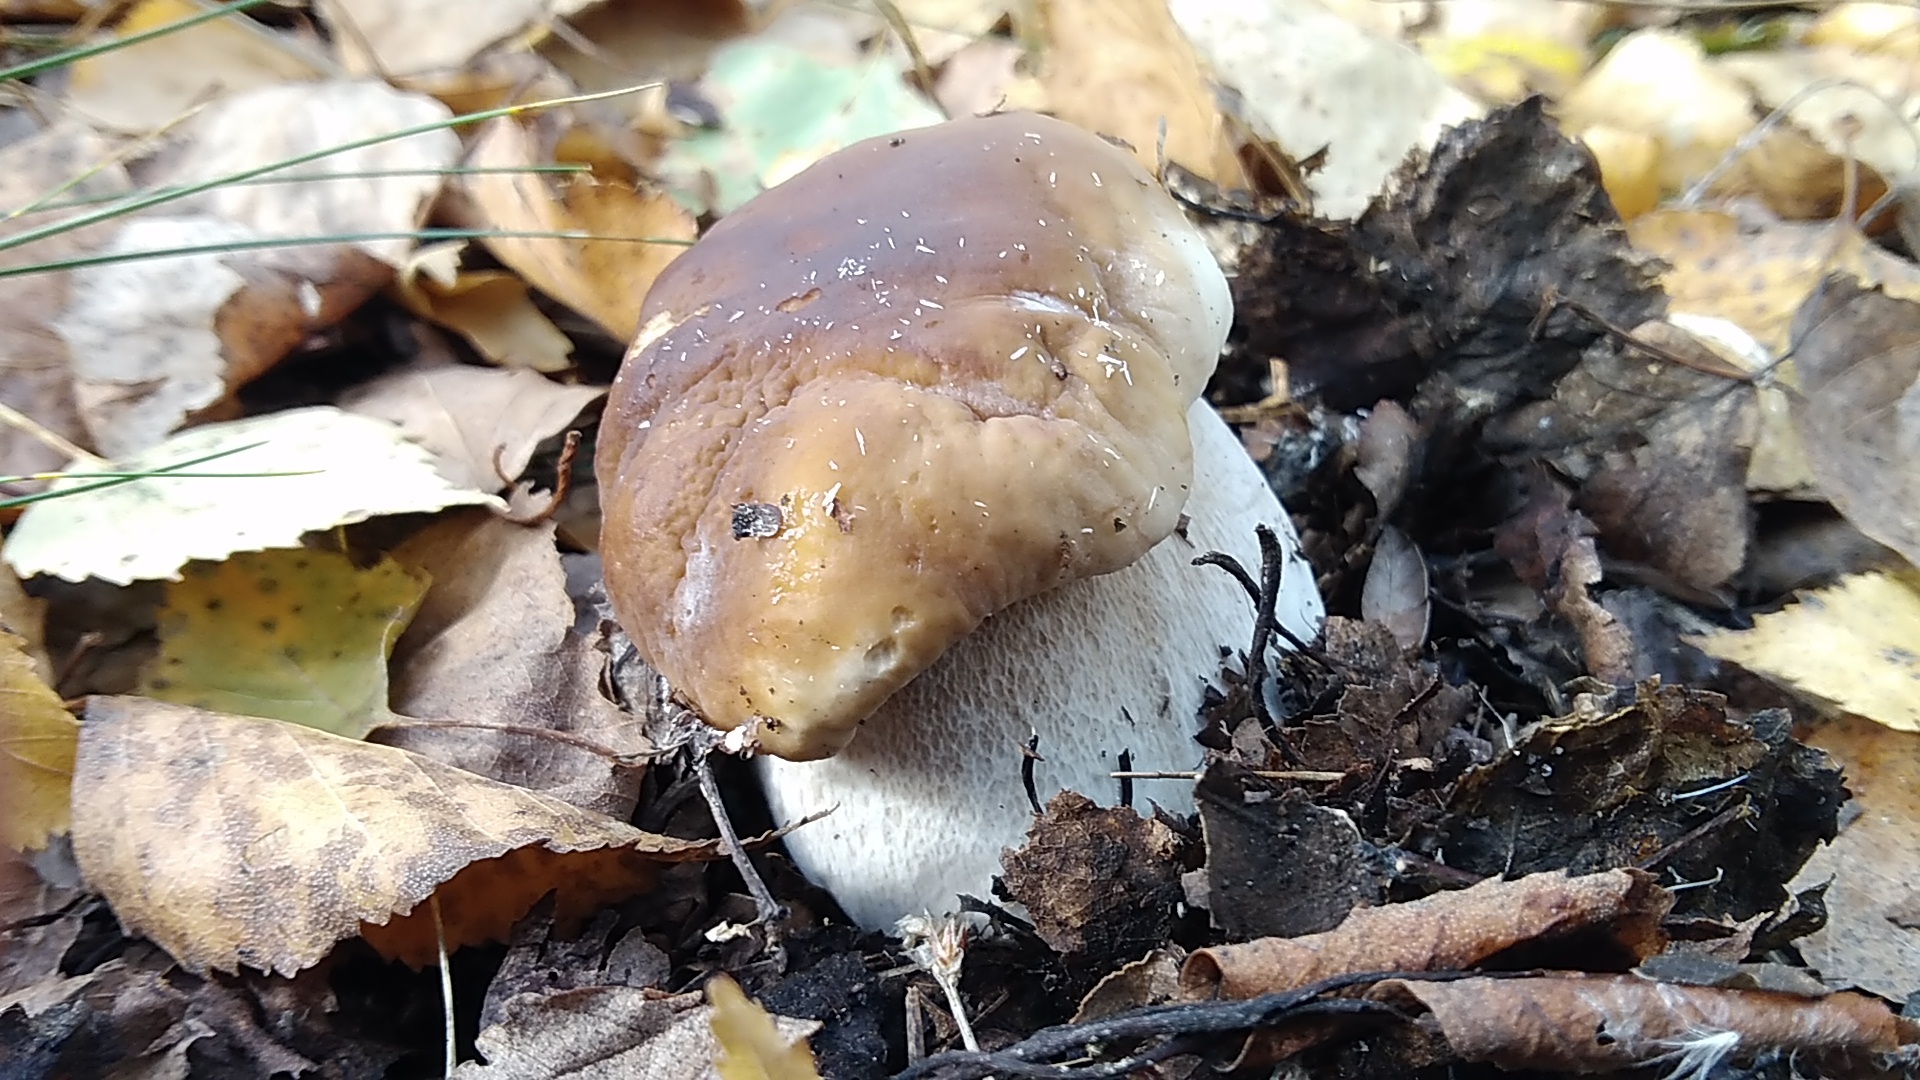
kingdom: Fungi
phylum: Basidiomycota
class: Agaricomycetes
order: Boletales
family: Boletaceae
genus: Boletus
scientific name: Boletus edulis
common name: Cep
